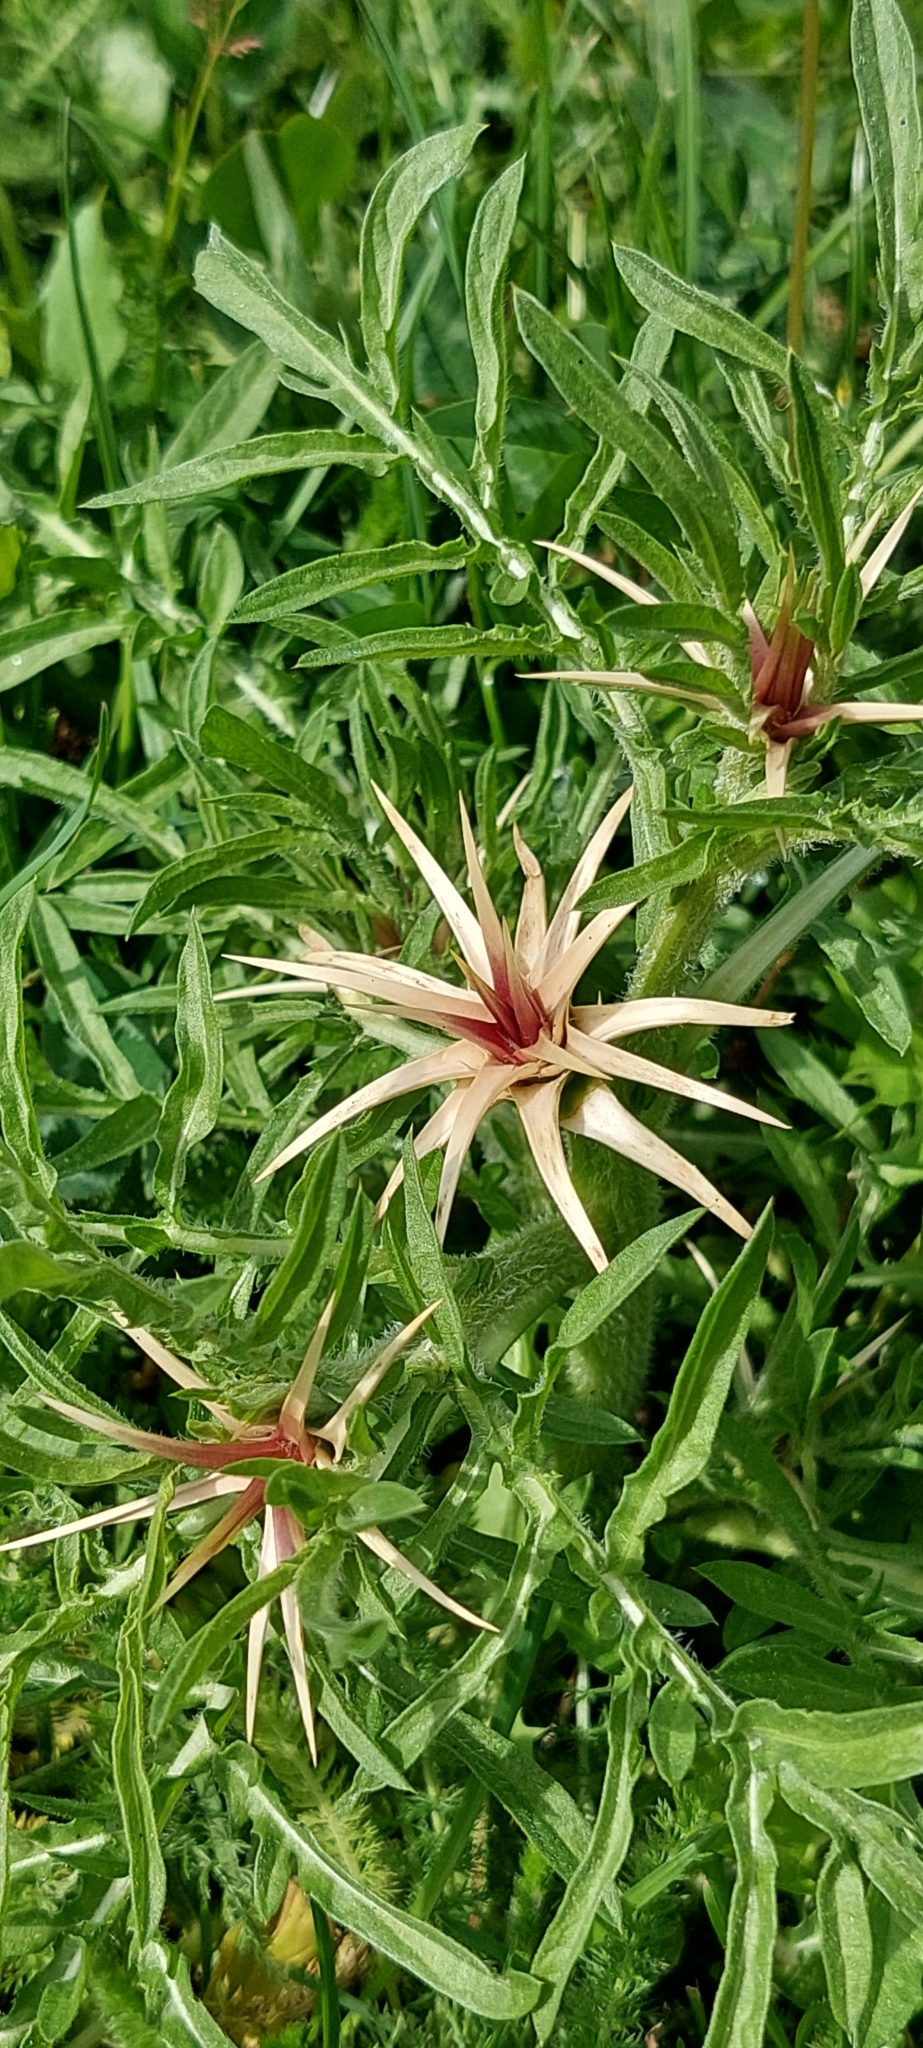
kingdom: Plantae
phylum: Tracheophyta
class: Magnoliopsida
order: Asterales
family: Asteraceae
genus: Centaurea
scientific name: Centaurea iberica
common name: Iberian knapweed
